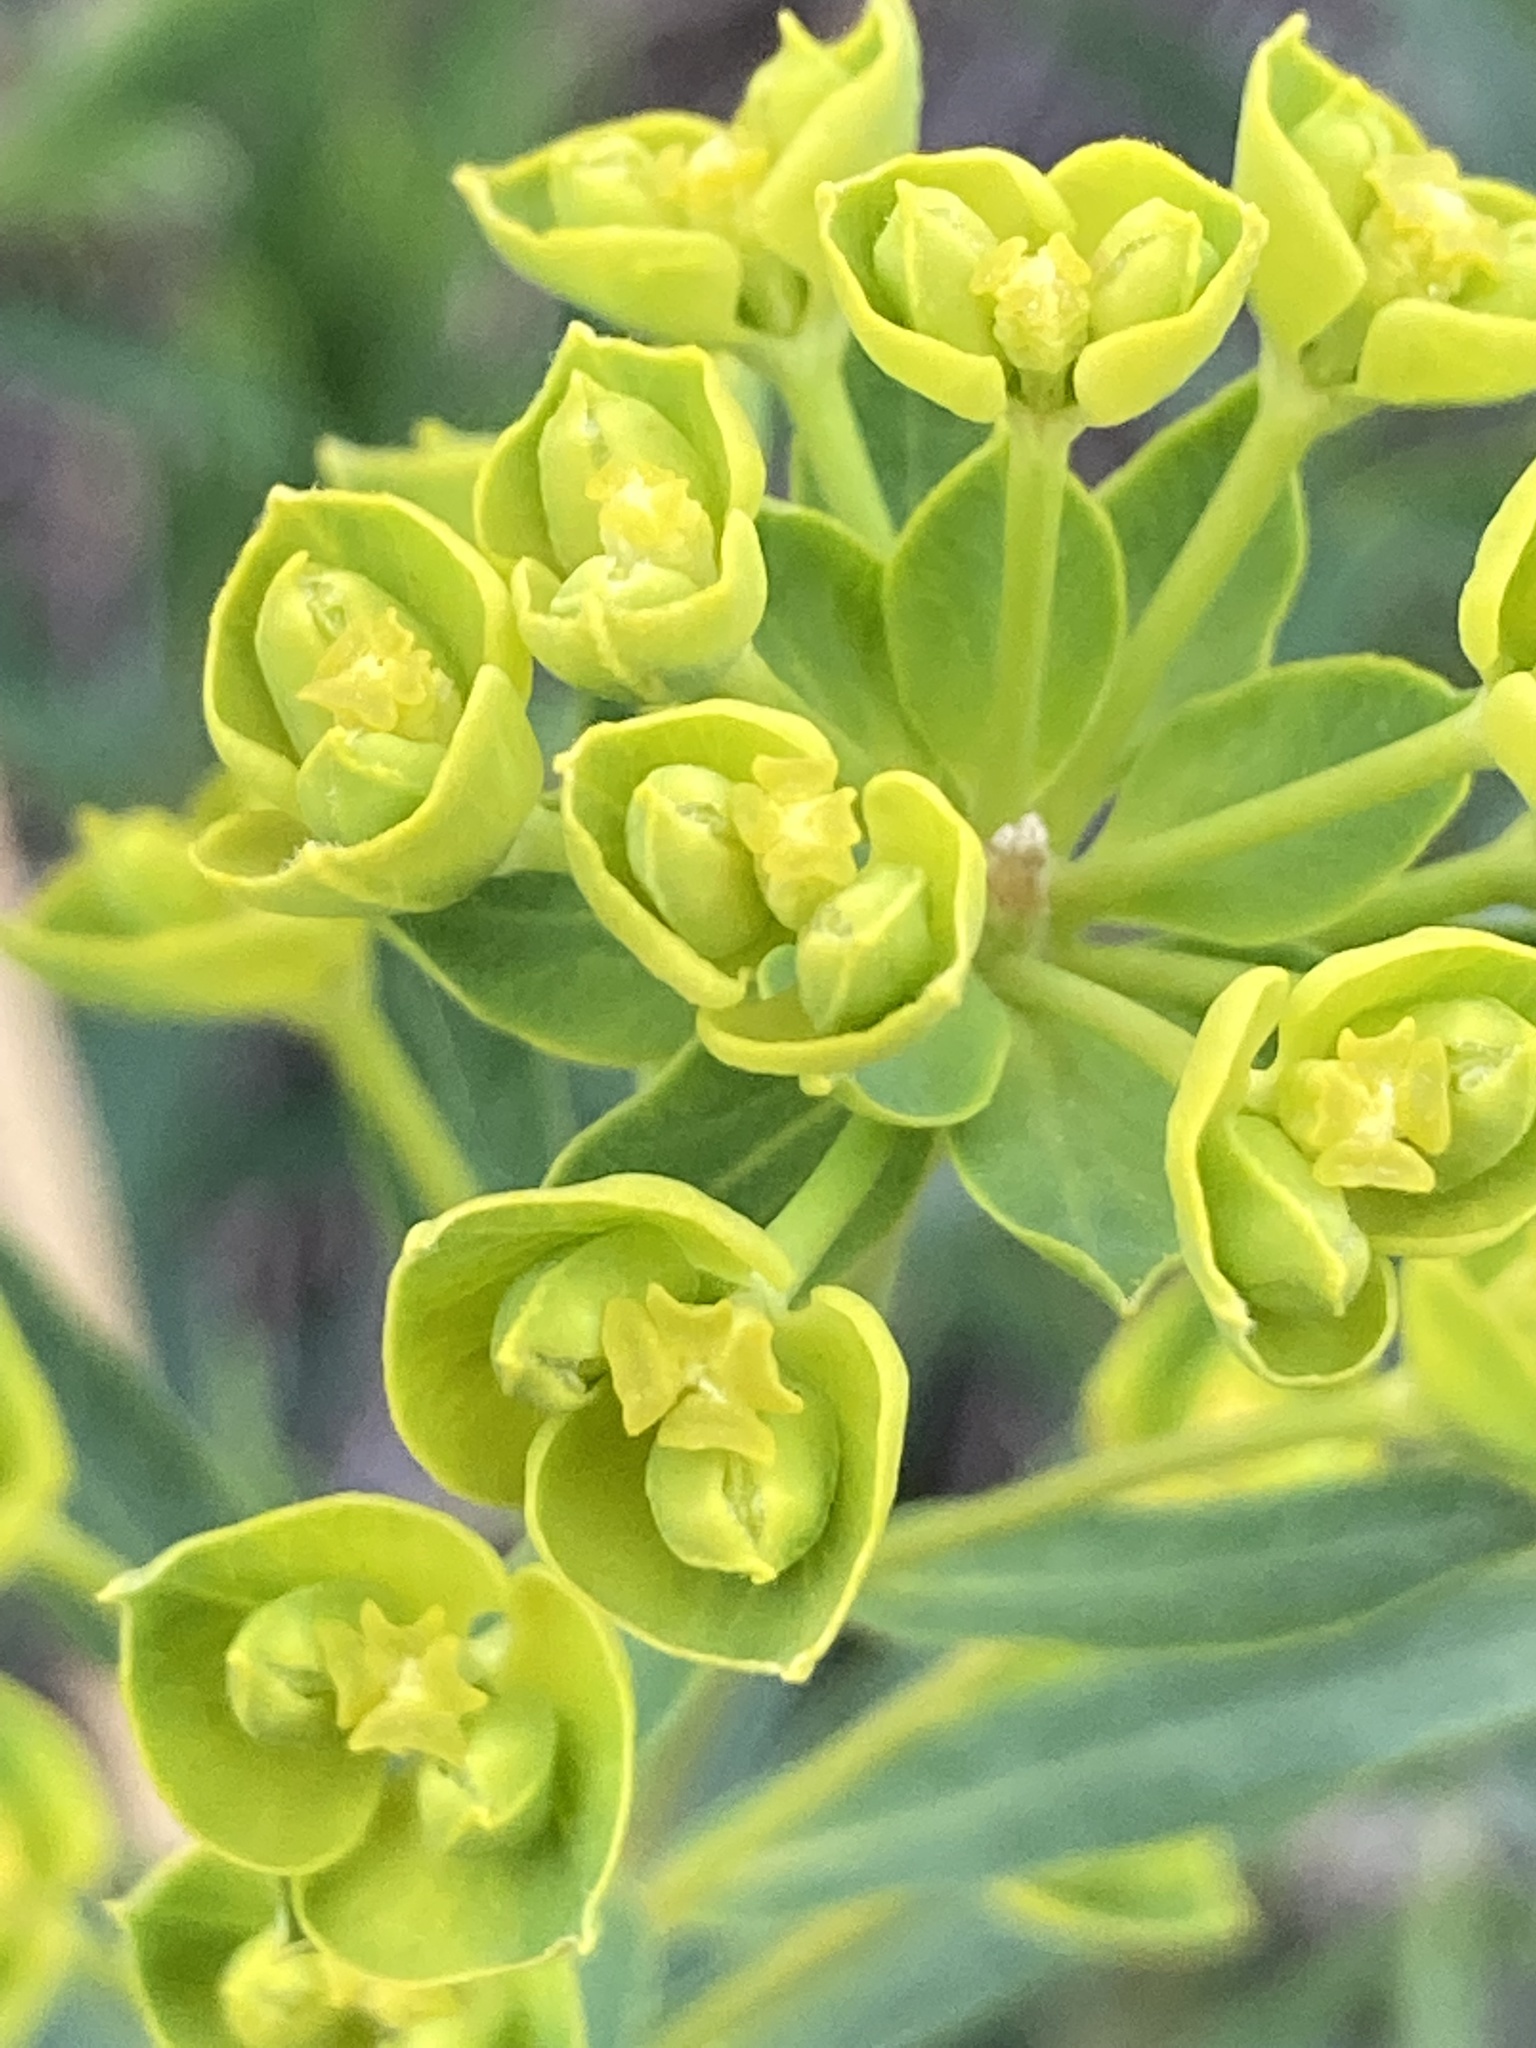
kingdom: Plantae
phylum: Tracheophyta
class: Magnoliopsida
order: Malpighiales
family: Euphorbiaceae
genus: Euphorbia
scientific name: Euphorbia virgata
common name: Leafy spurge
